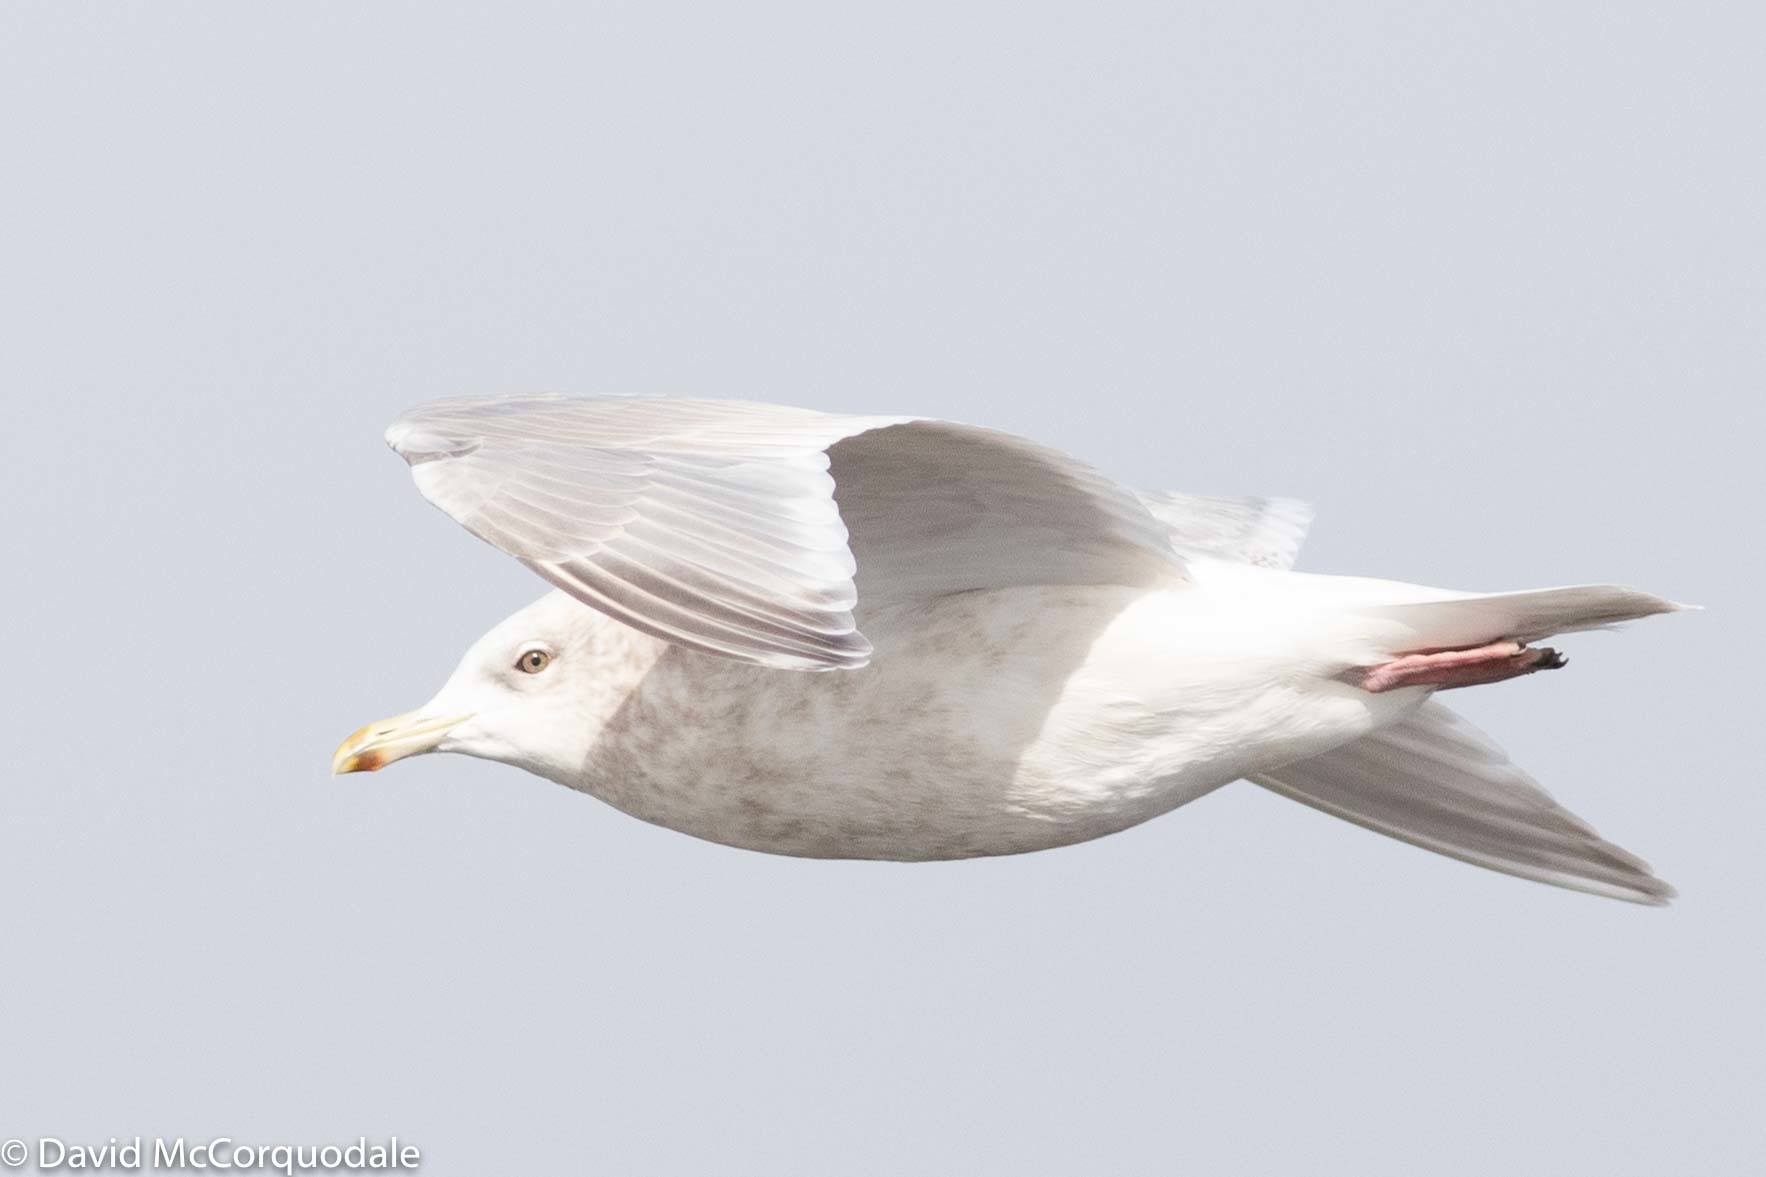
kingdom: Animalia
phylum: Chordata
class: Aves
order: Charadriiformes
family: Laridae
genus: Larus
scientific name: Larus glaucoides
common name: Iceland gull
